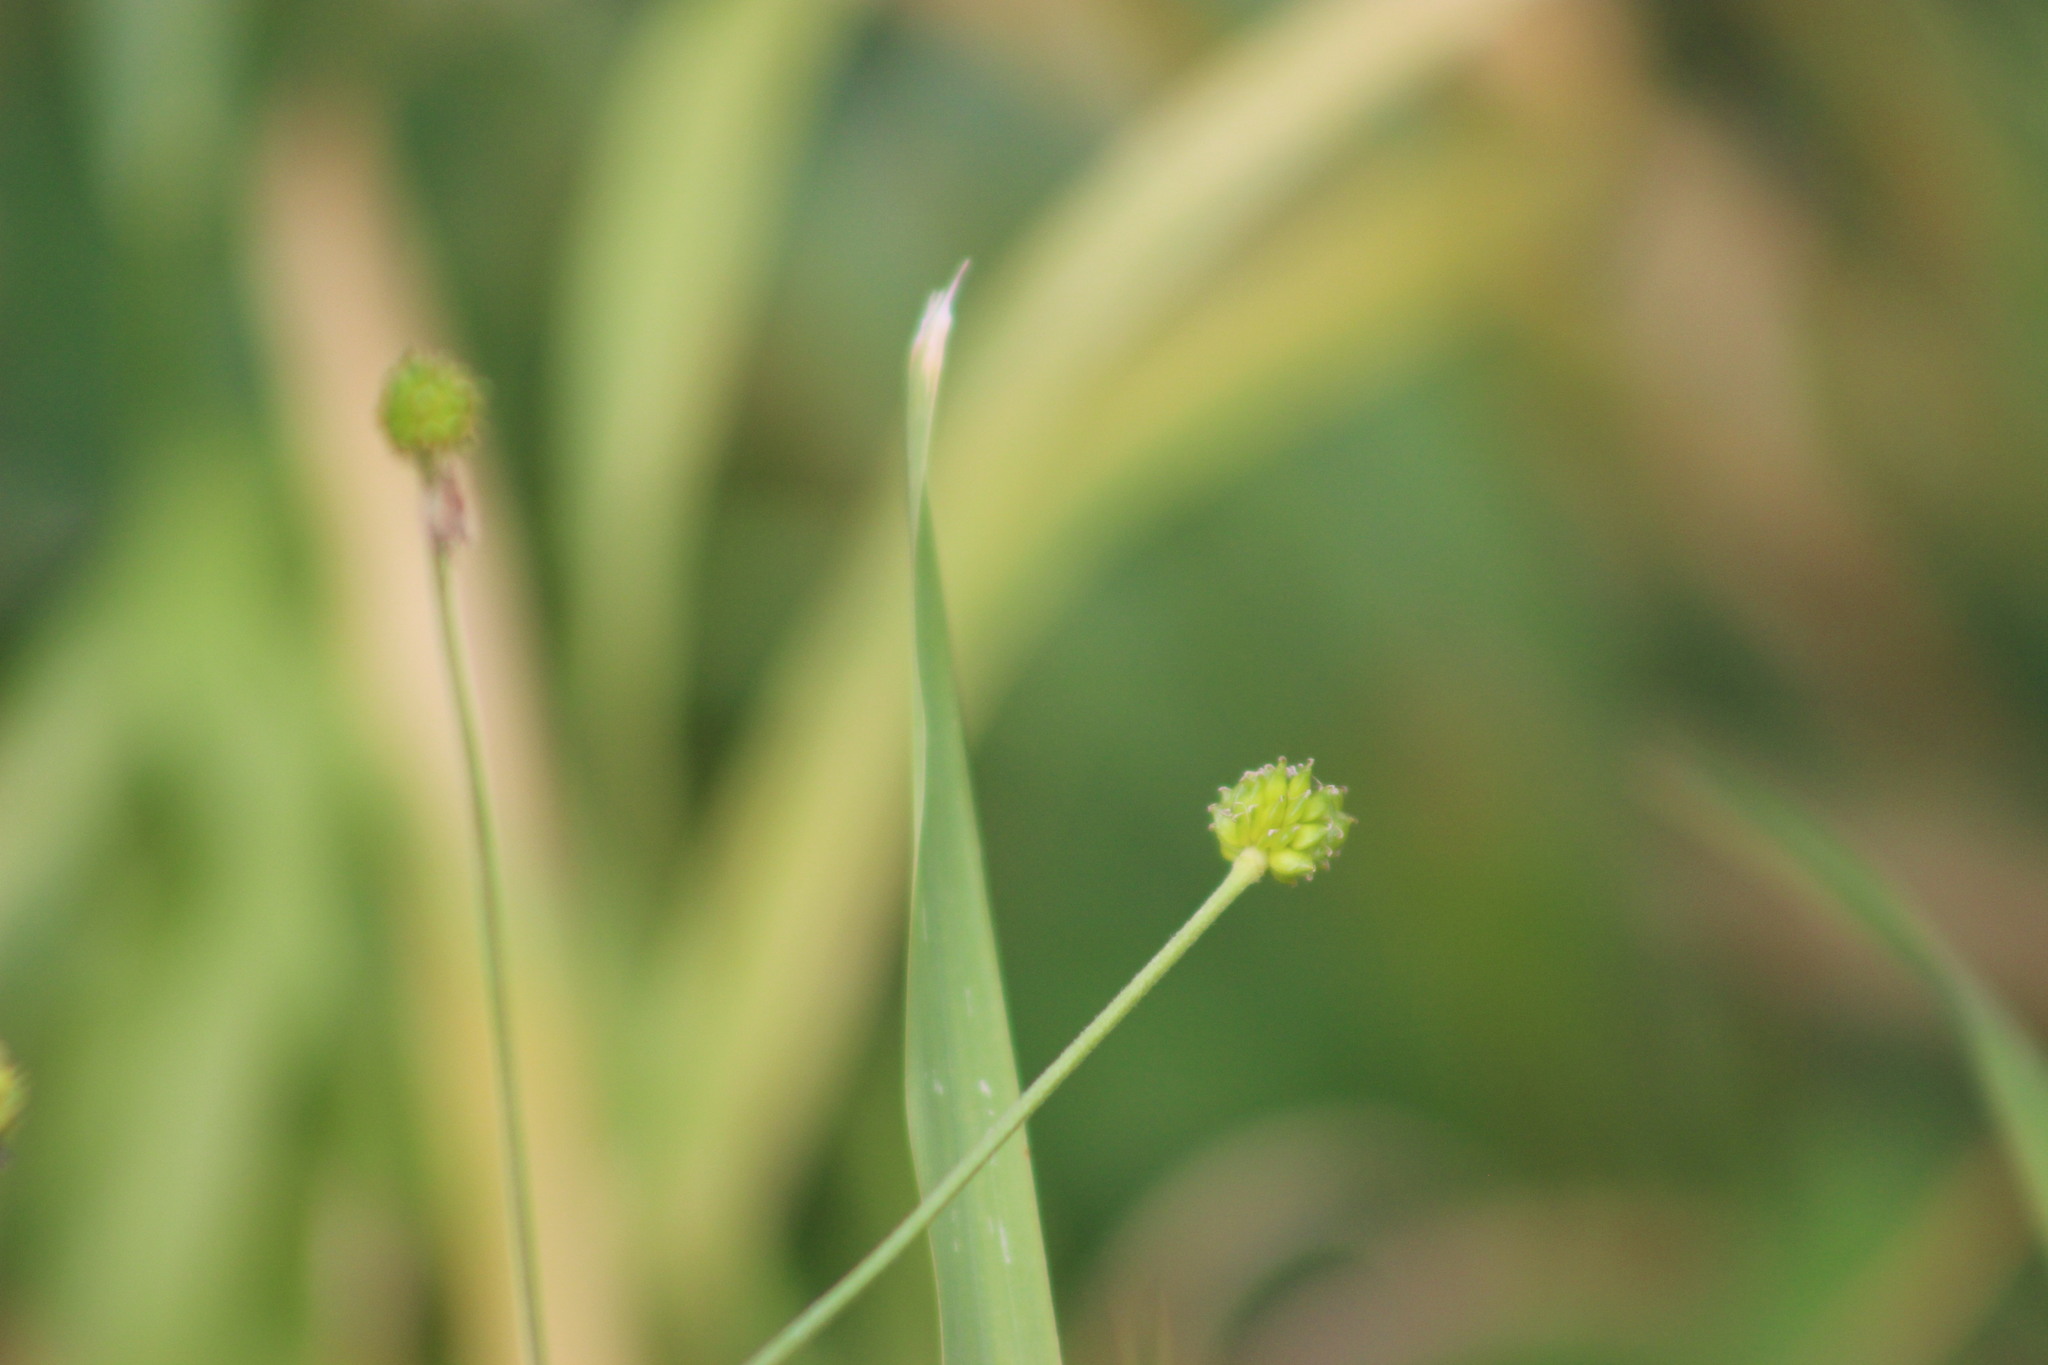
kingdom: Plantae
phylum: Tracheophyta
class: Magnoliopsida
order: Ranunculales
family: Ranunculaceae
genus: Ranunculus
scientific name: Ranunculus acris
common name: Meadow buttercup
